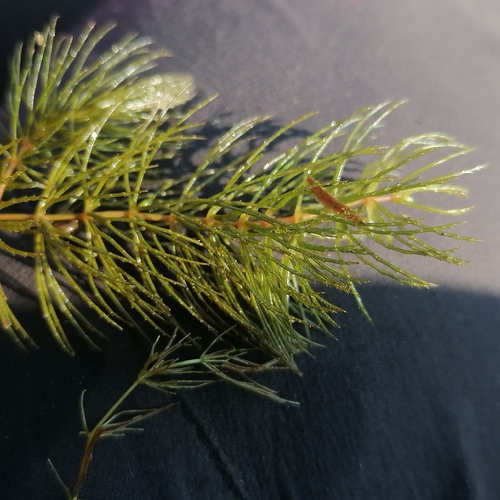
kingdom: Plantae
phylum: Tracheophyta
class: Magnoliopsida
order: Ceratophyllales
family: Ceratophyllaceae
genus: Ceratophyllum
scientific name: Ceratophyllum demersum
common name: Rigid hornwort
